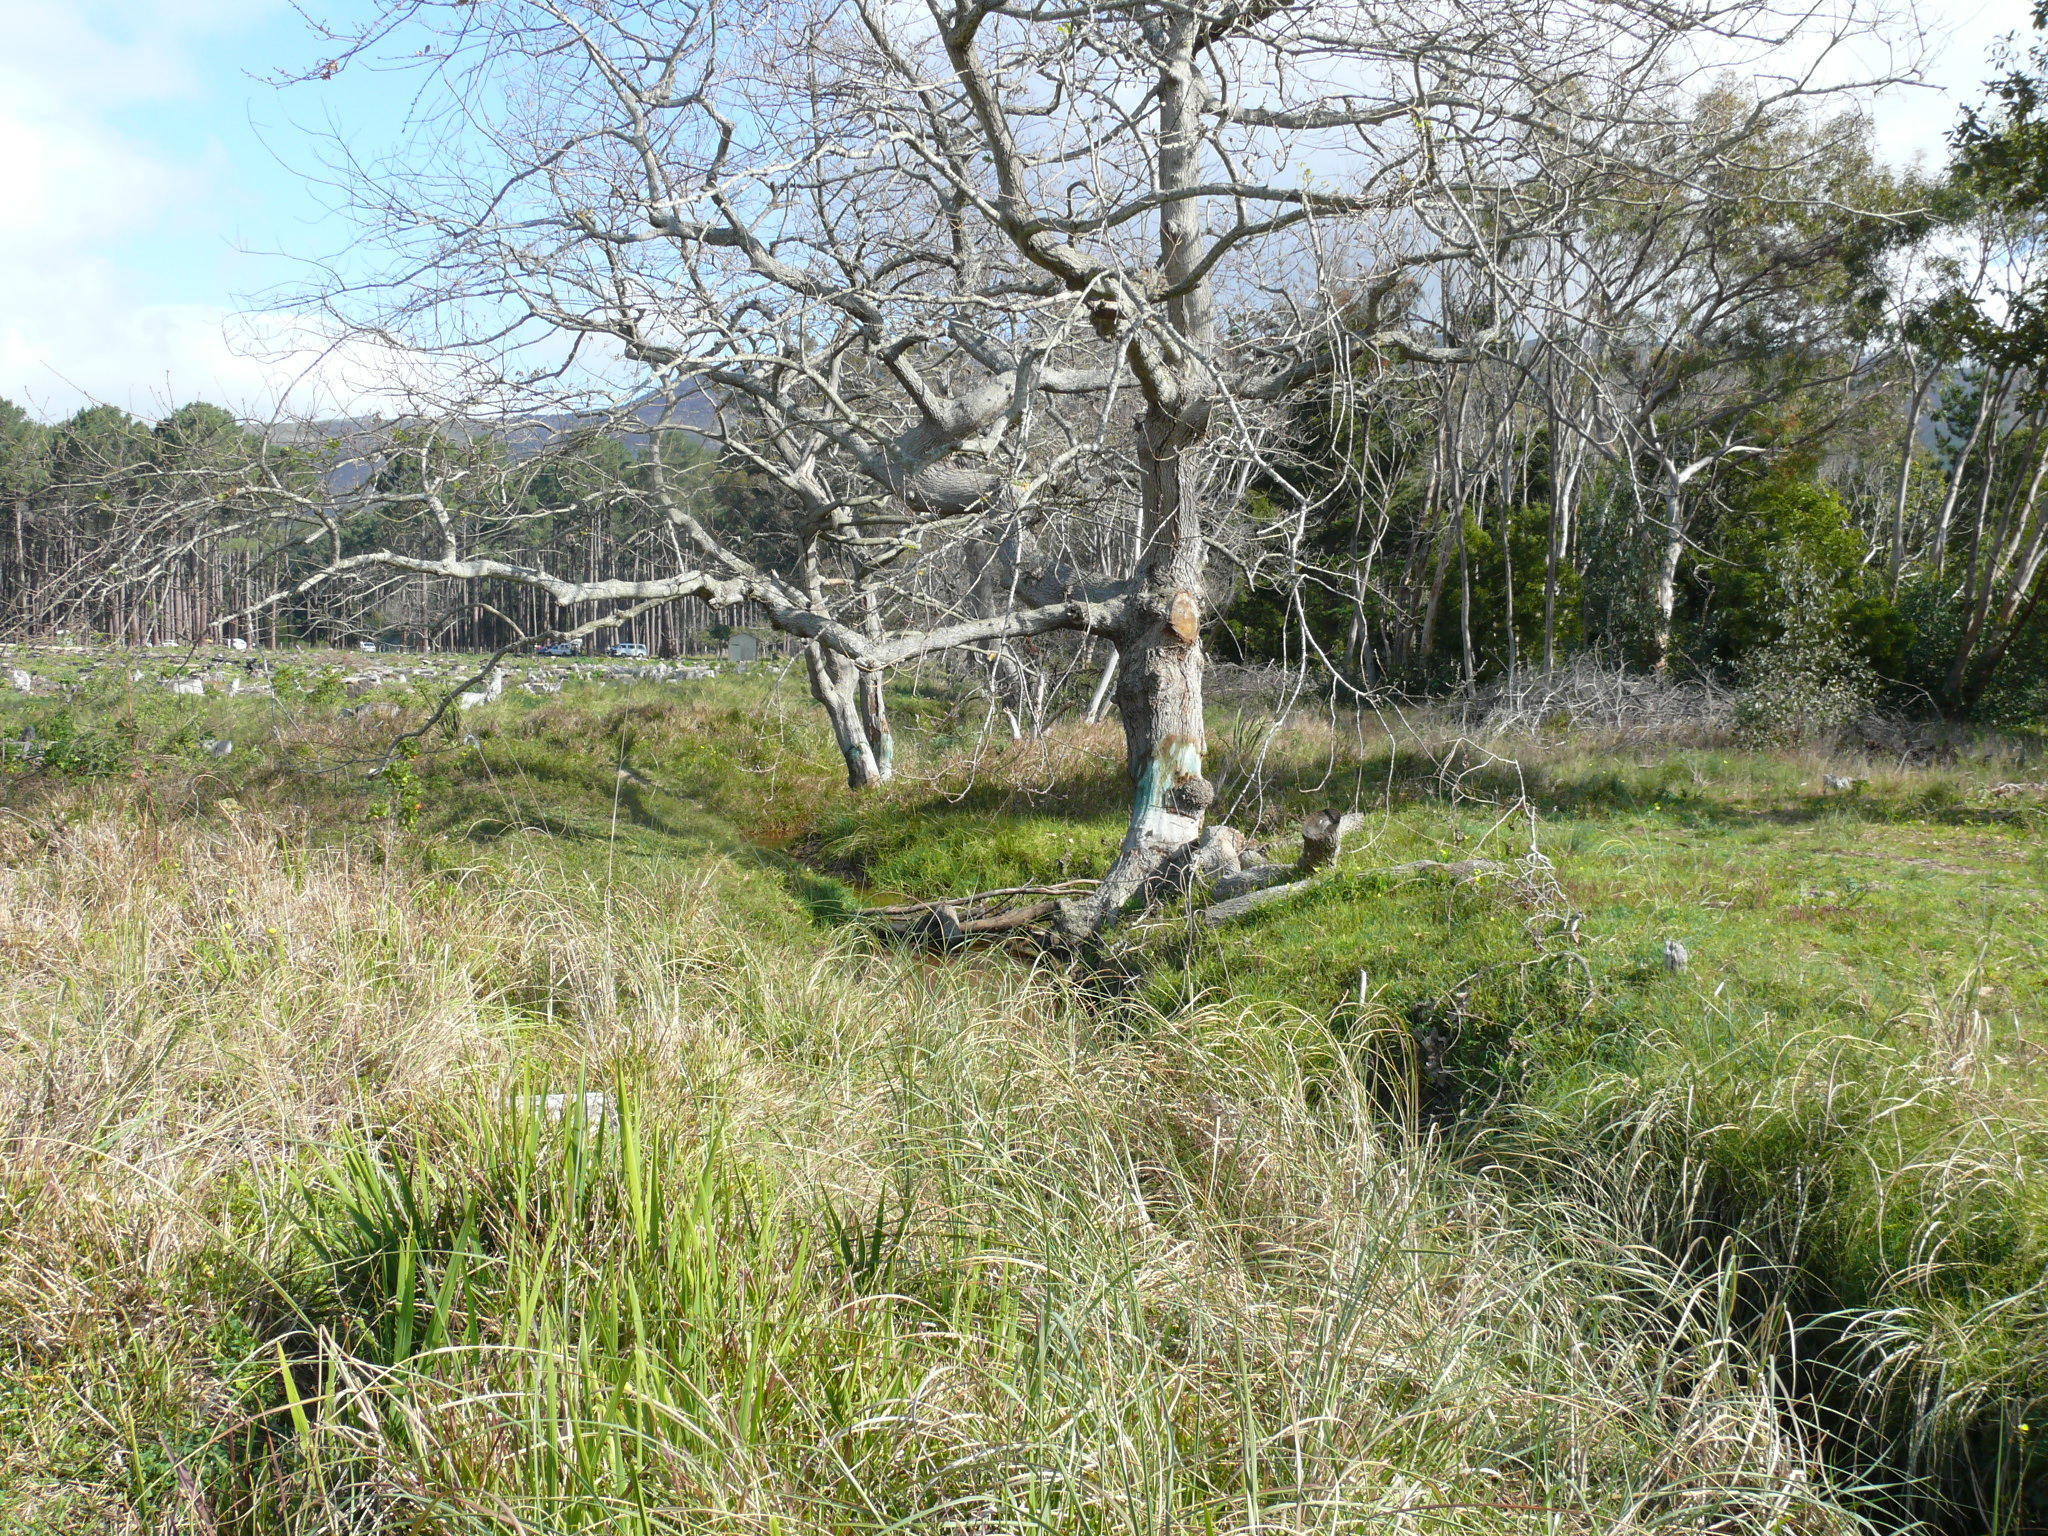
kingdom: Plantae
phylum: Tracheophyta
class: Magnoliopsida
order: Fagales
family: Fagaceae
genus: Quercus
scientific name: Quercus robur
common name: Pedunculate oak
